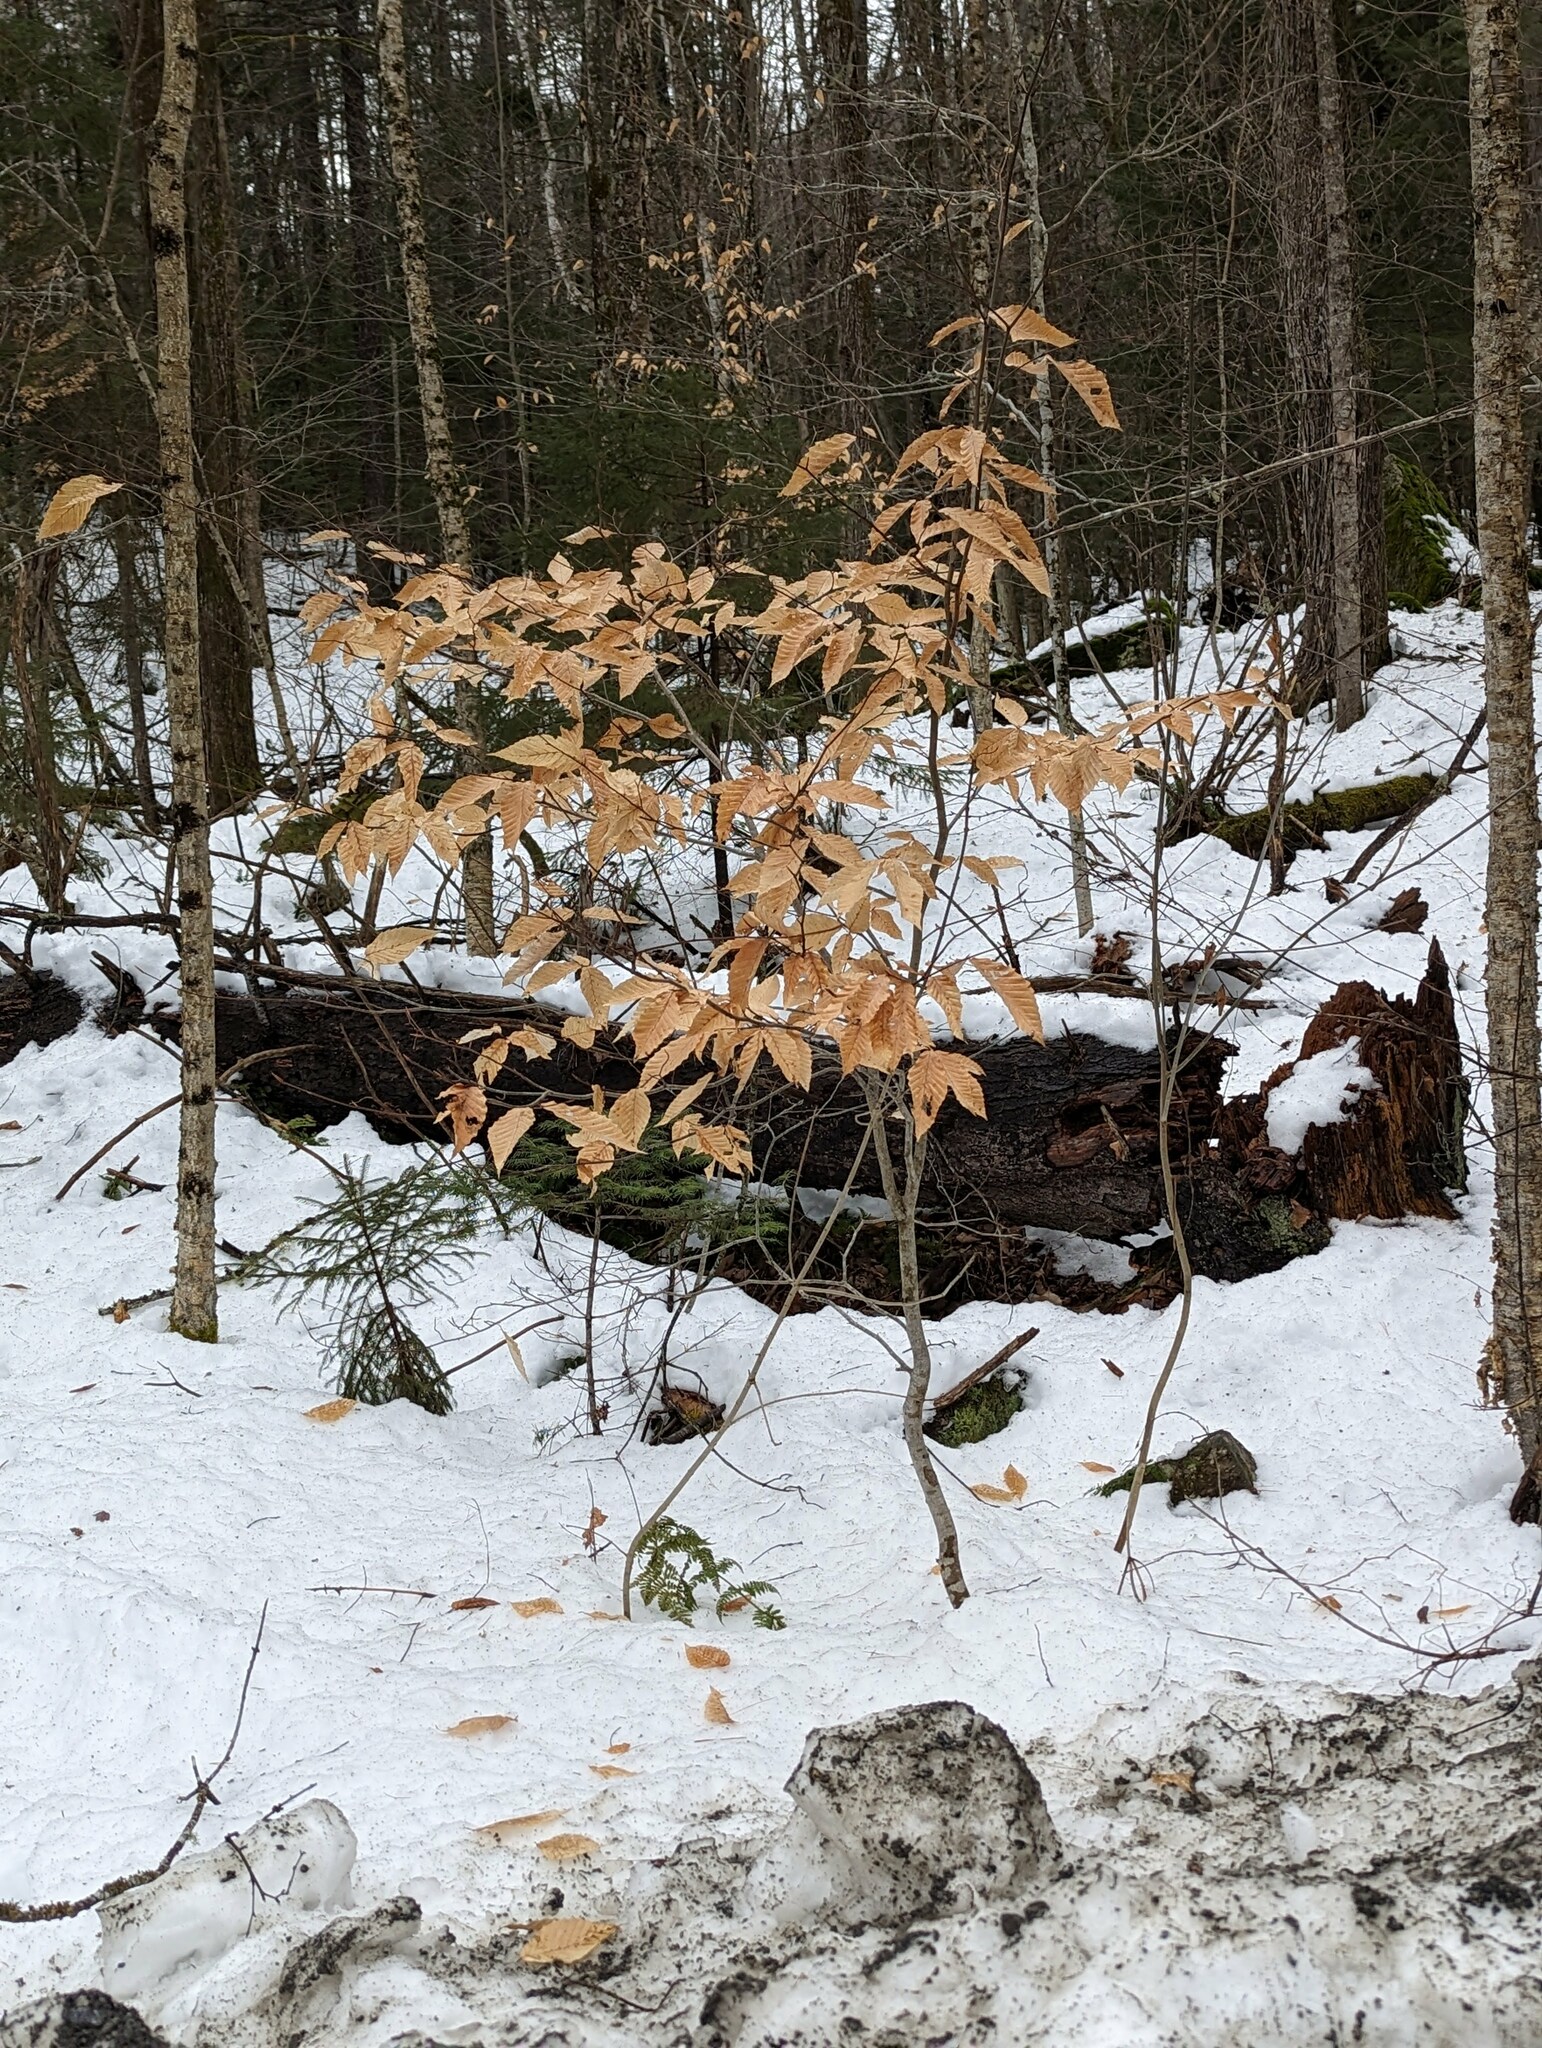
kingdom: Plantae
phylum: Tracheophyta
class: Magnoliopsida
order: Fagales
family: Fagaceae
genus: Fagus
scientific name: Fagus grandifolia
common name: American beech
